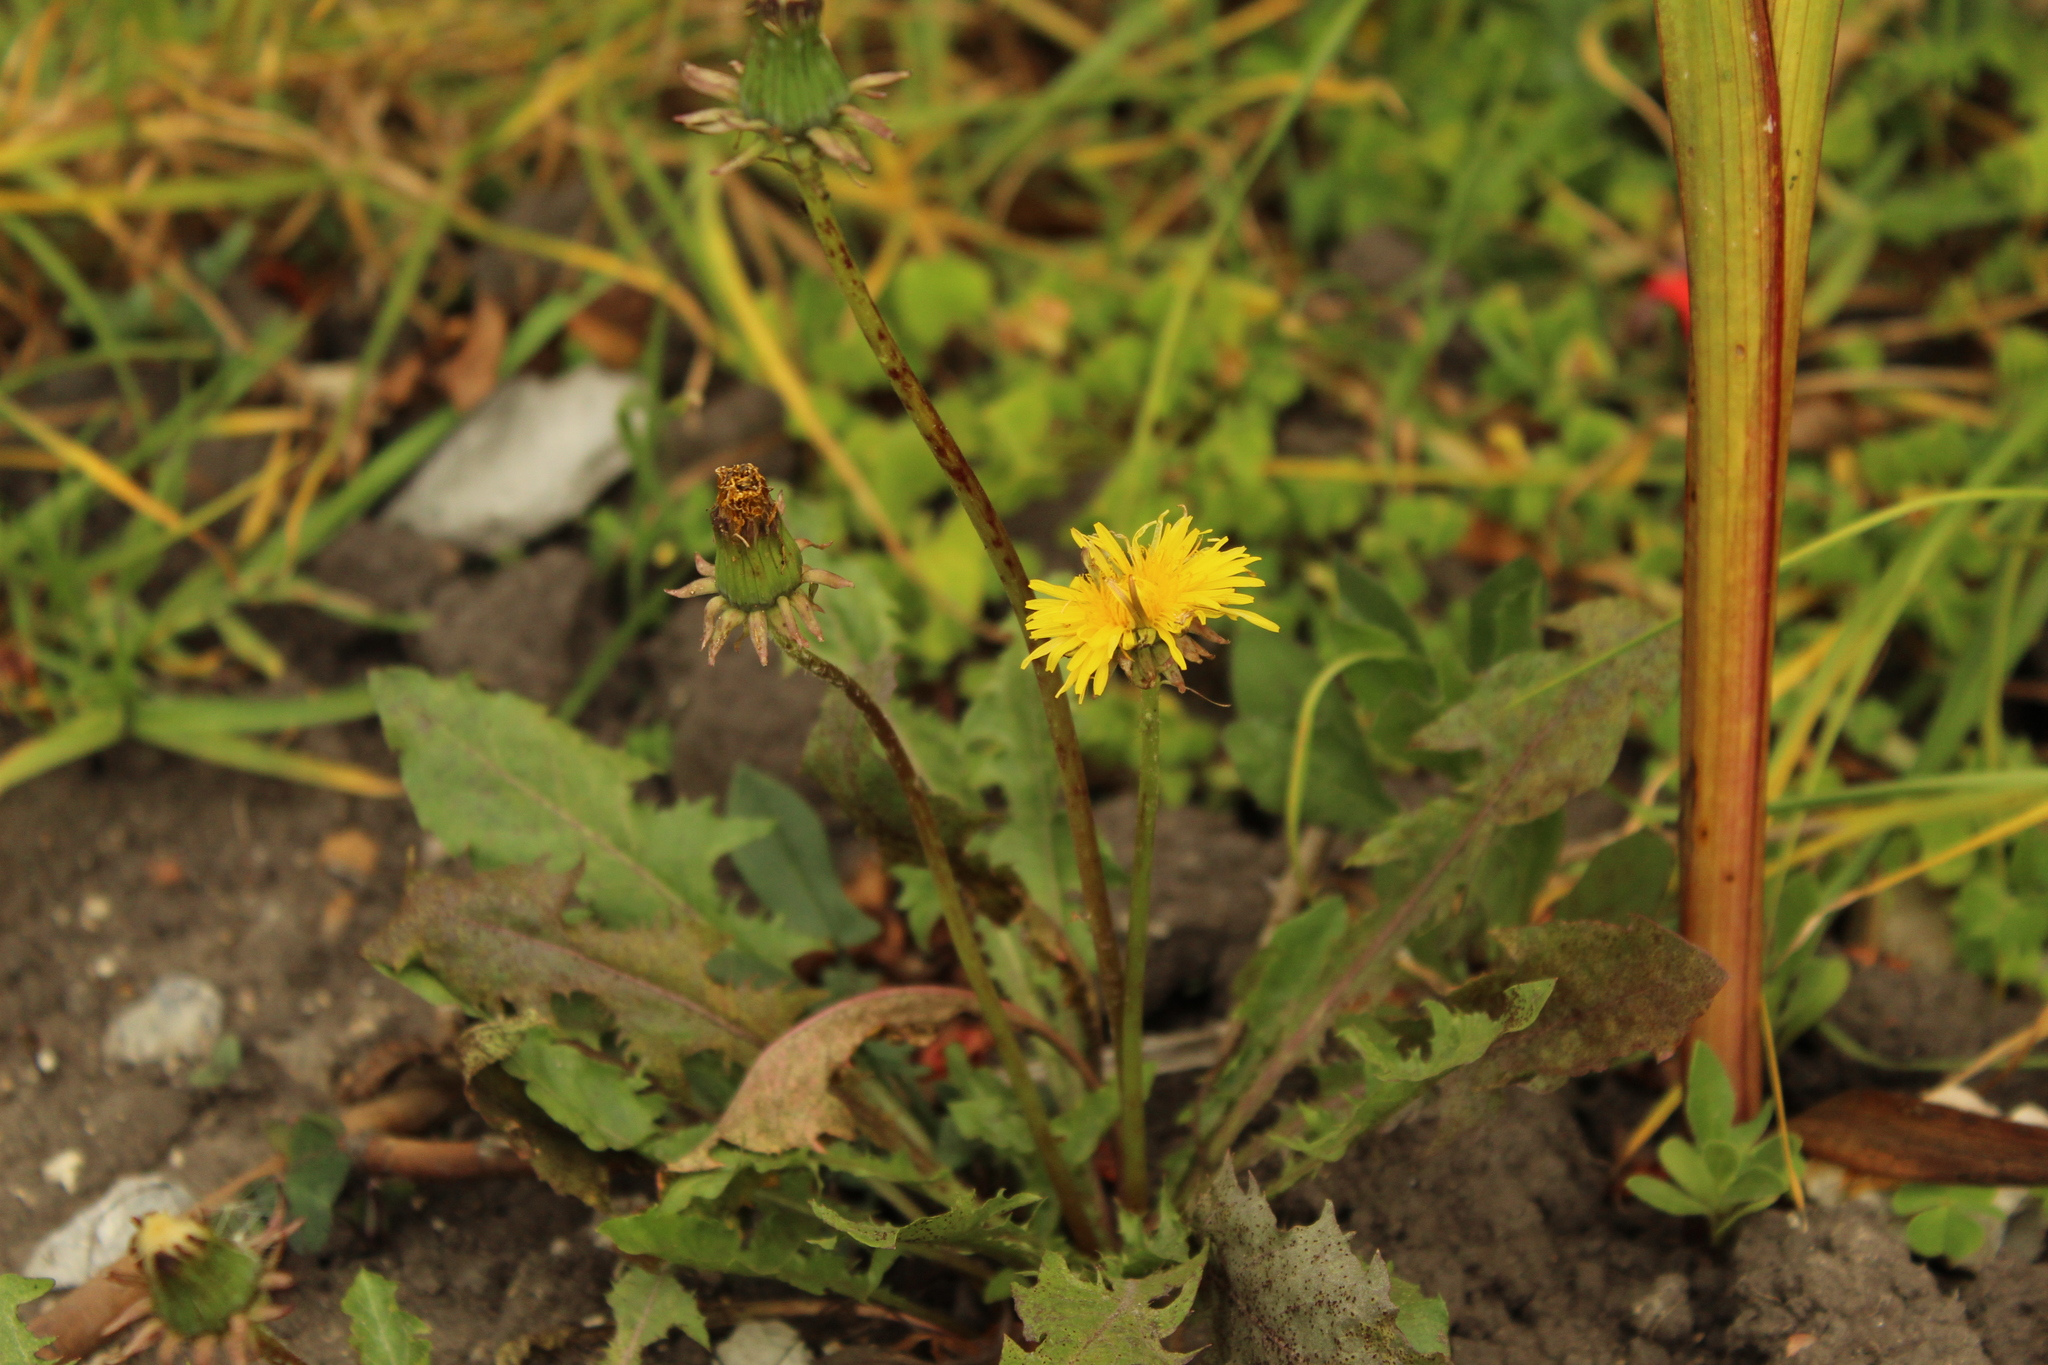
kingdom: Plantae
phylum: Tracheophyta
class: Magnoliopsida
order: Asterales
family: Asteraceae
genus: Taraxacum
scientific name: Taraxacum officinale
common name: Common dandelion
